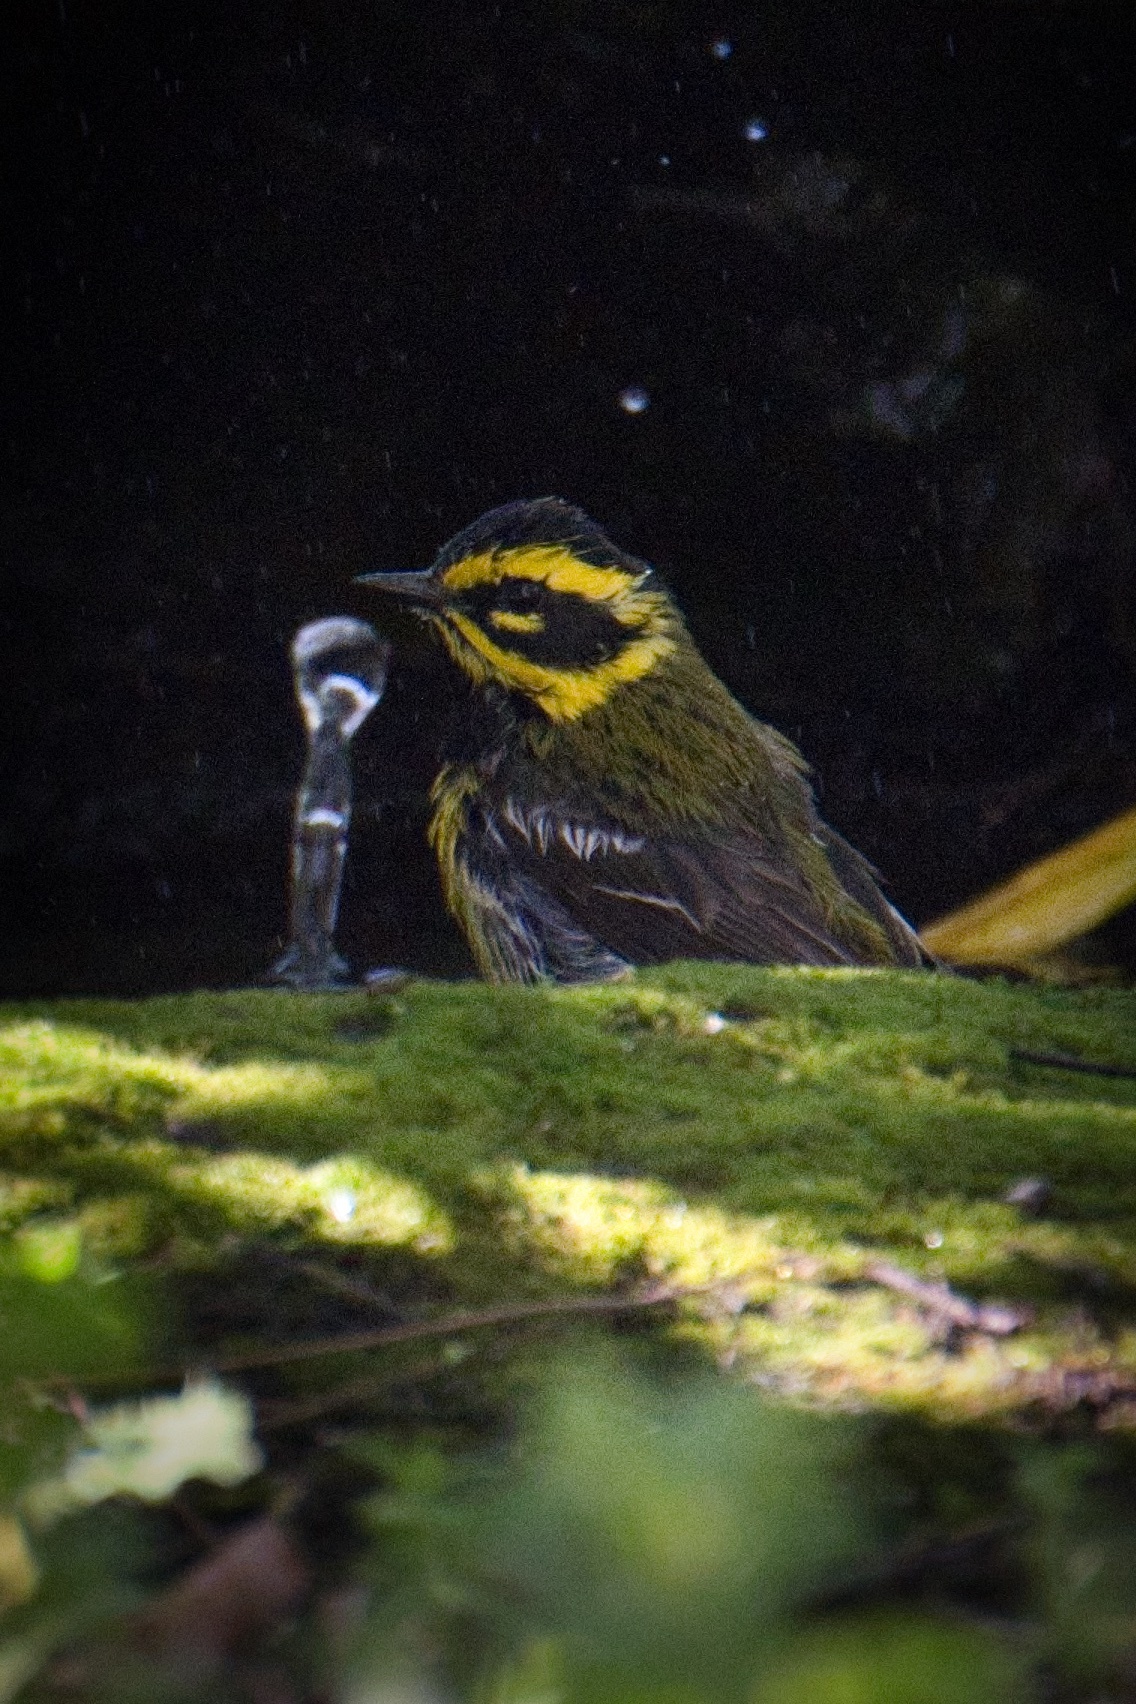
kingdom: Animalia
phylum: Chordata
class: Aves
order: Passeriformes
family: Parulidae
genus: Setophaga
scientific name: Setophaga townsendi
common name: Townsend's warbler
